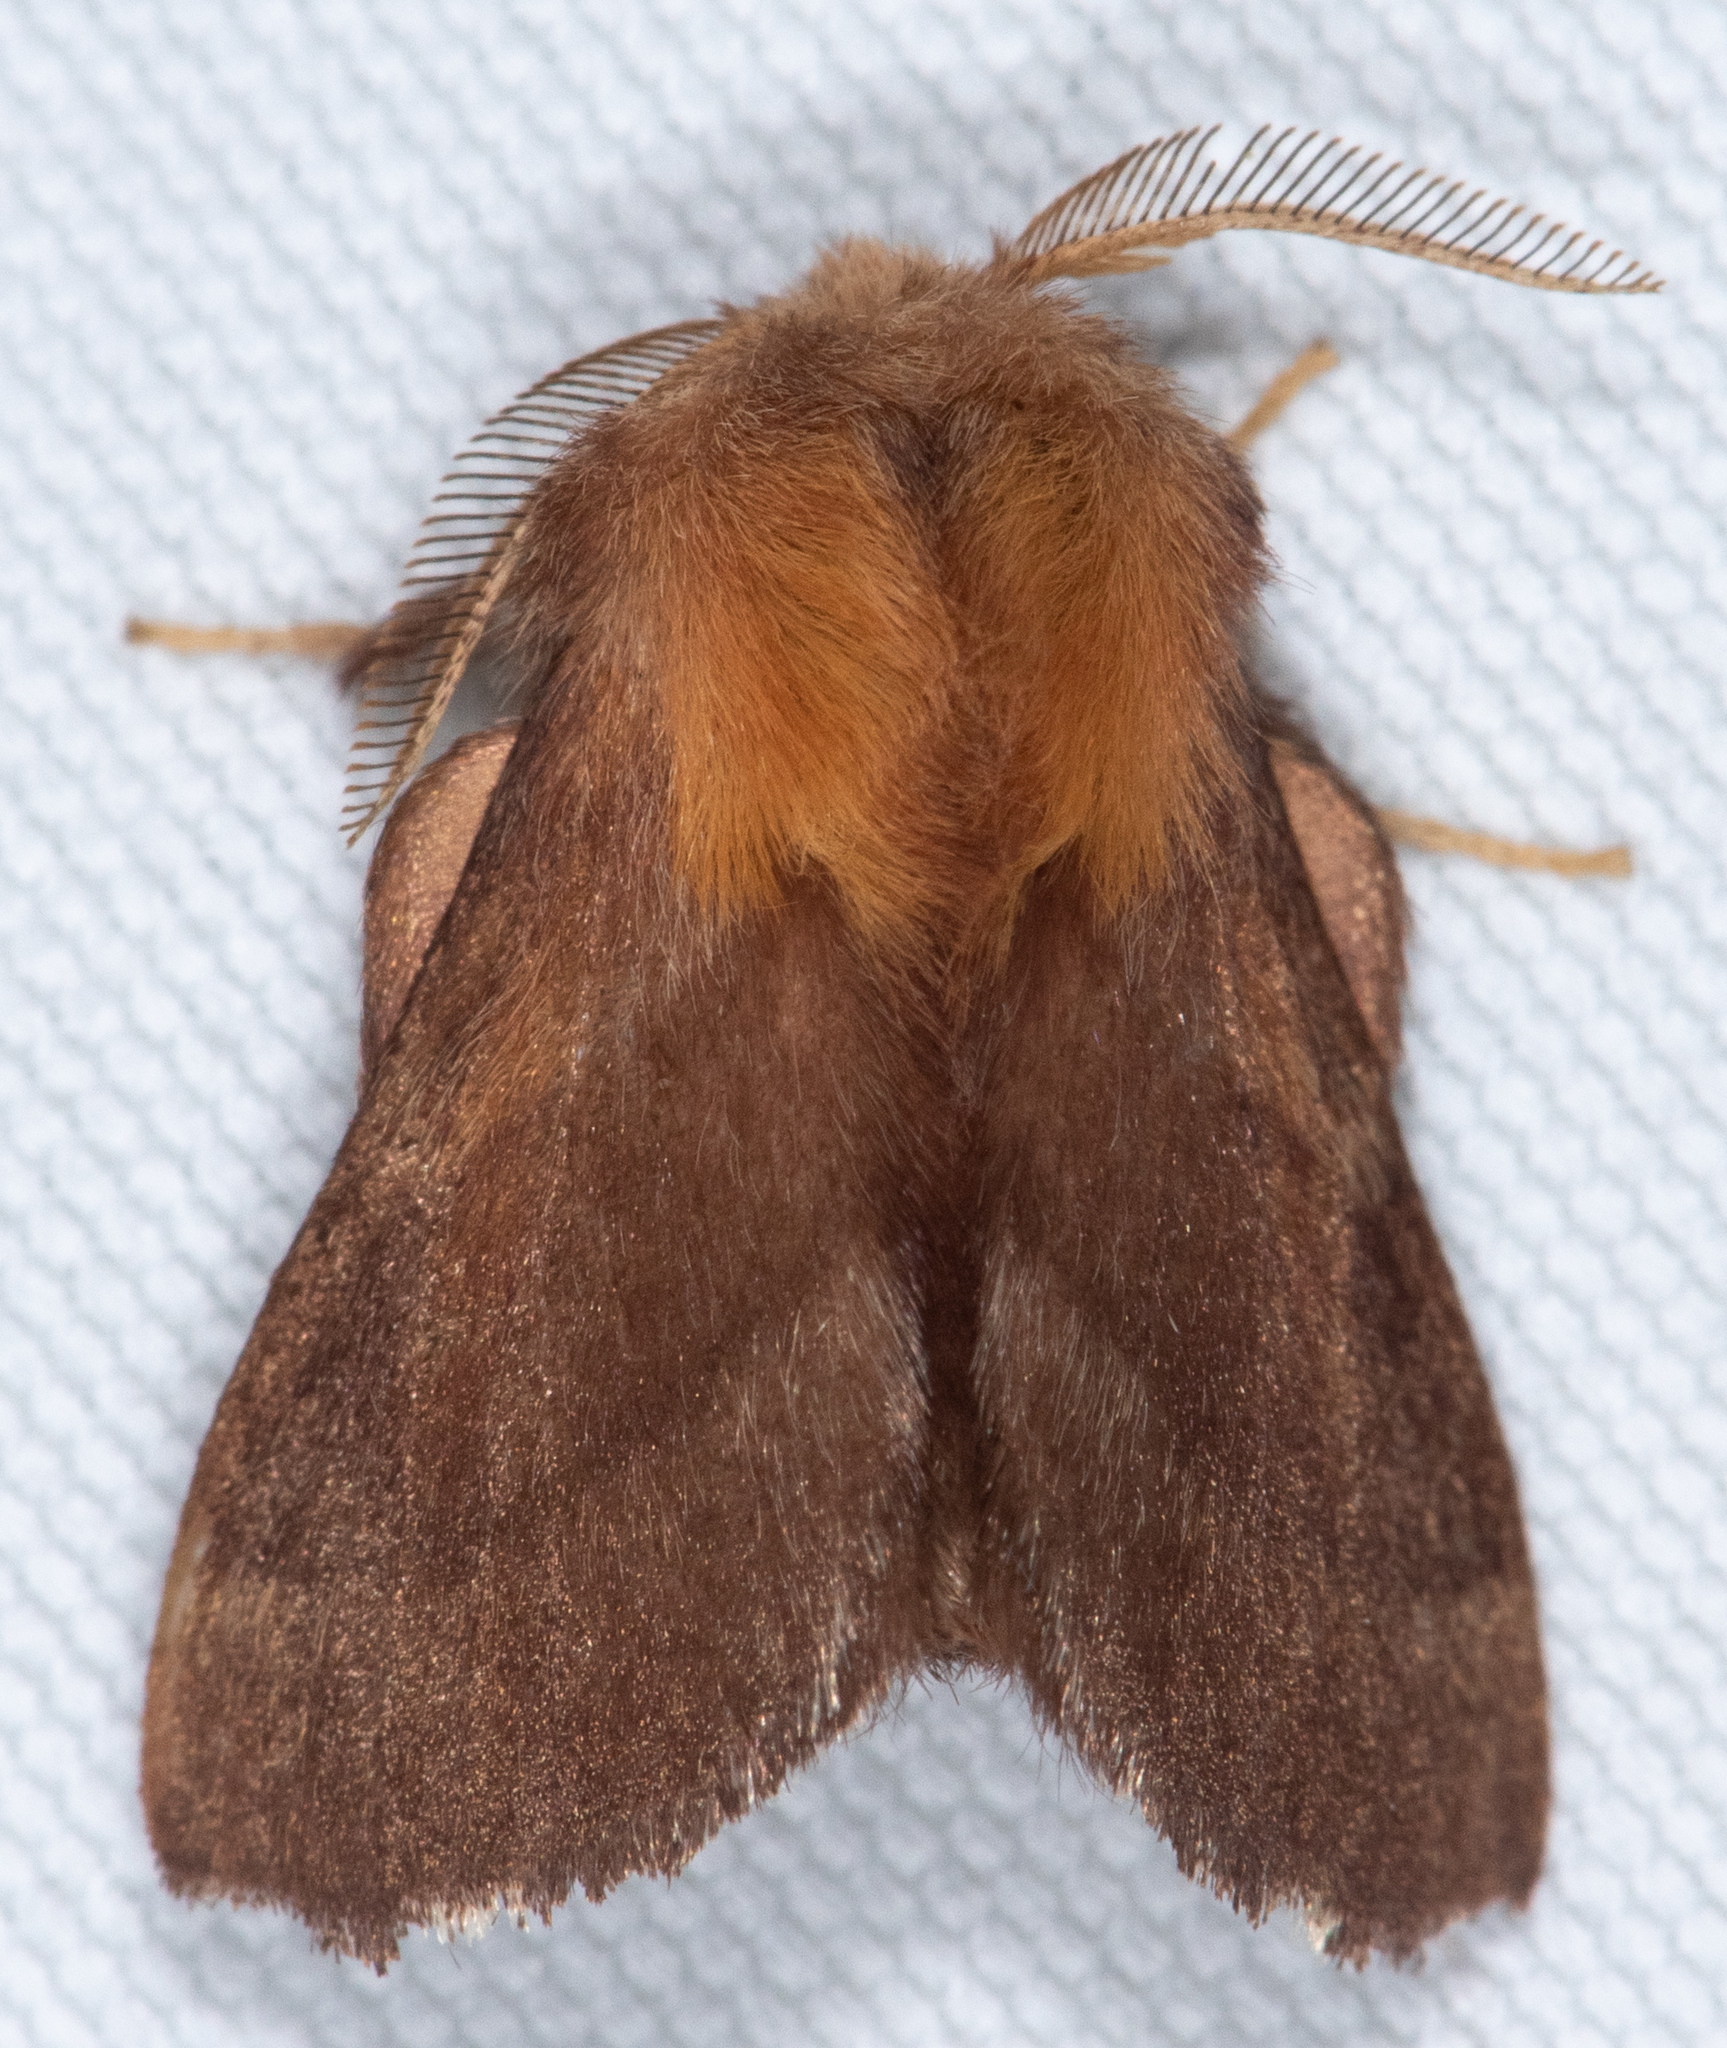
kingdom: Animalia
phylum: Arthropoda
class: Insecta
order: Lepidoptera
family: Lasiocampidae
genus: Malacosoma
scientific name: Malacosoma californica
